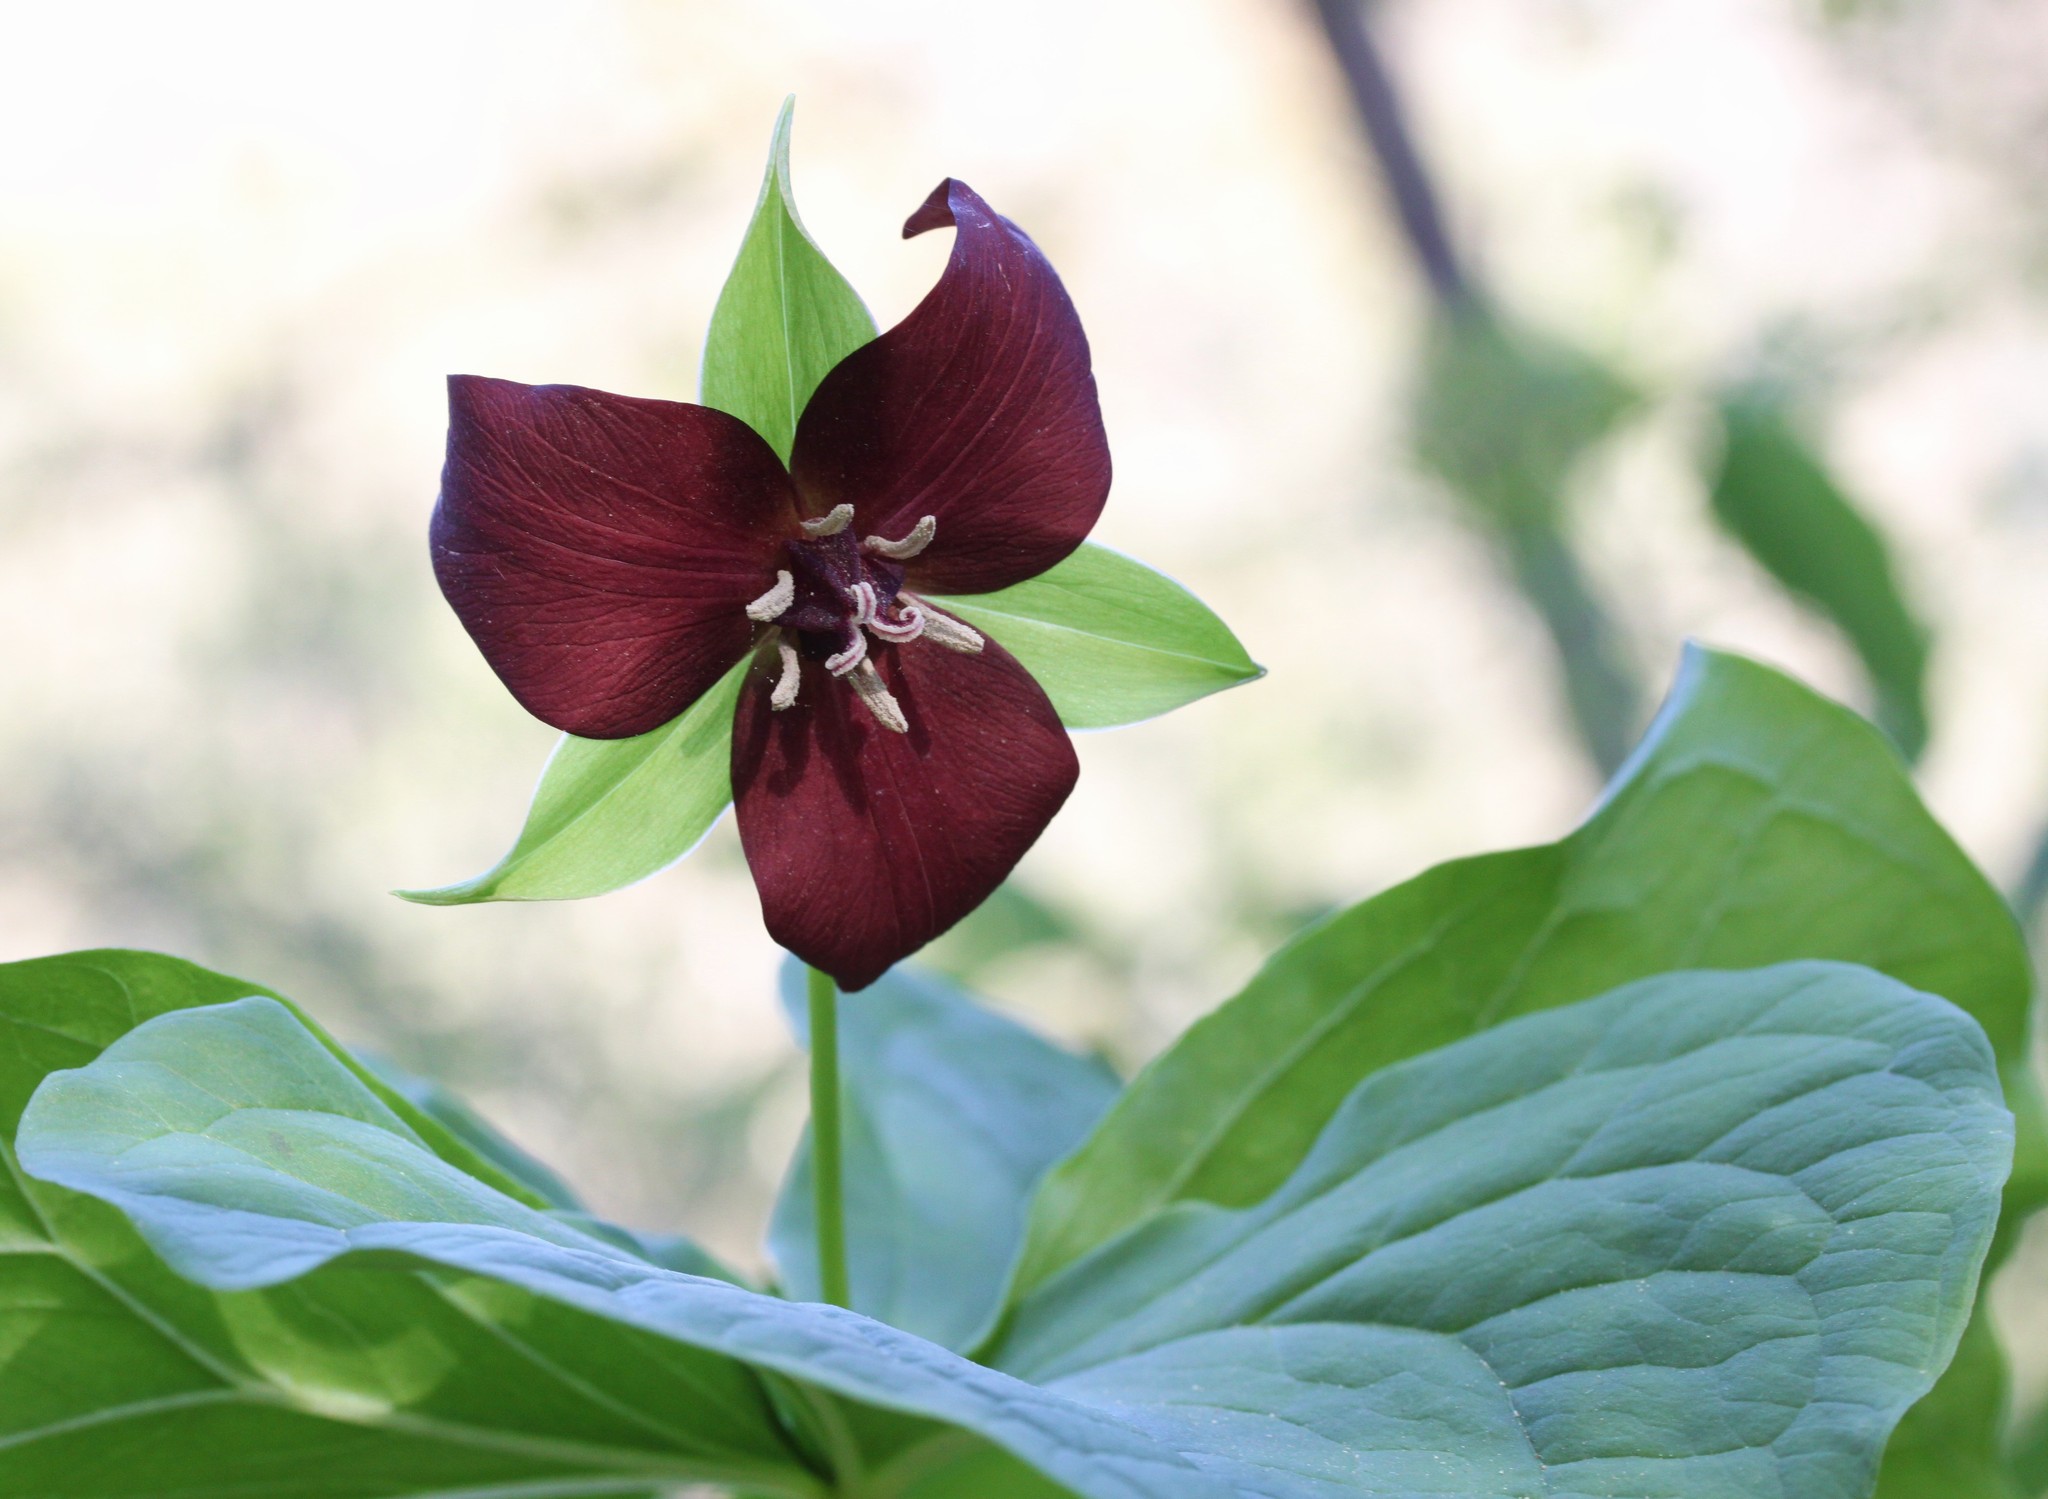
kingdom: Plantae
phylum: Tracheophyta
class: Liliopsida
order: Liliales
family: Melanthiaceae
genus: Trillium
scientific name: Trillium erectum
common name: Purple trillium
